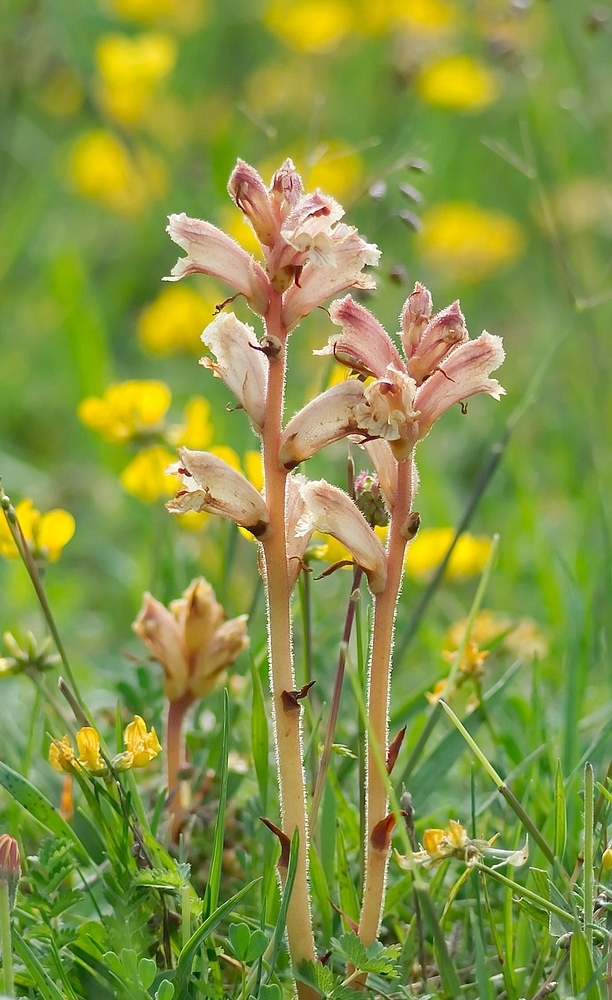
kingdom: Plantae
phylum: Tracheophyta
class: Magnoliopsida
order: Lamiales
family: Orobanchaceae
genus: Orobanche
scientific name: Orobanche alba
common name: Thyme broomrape
